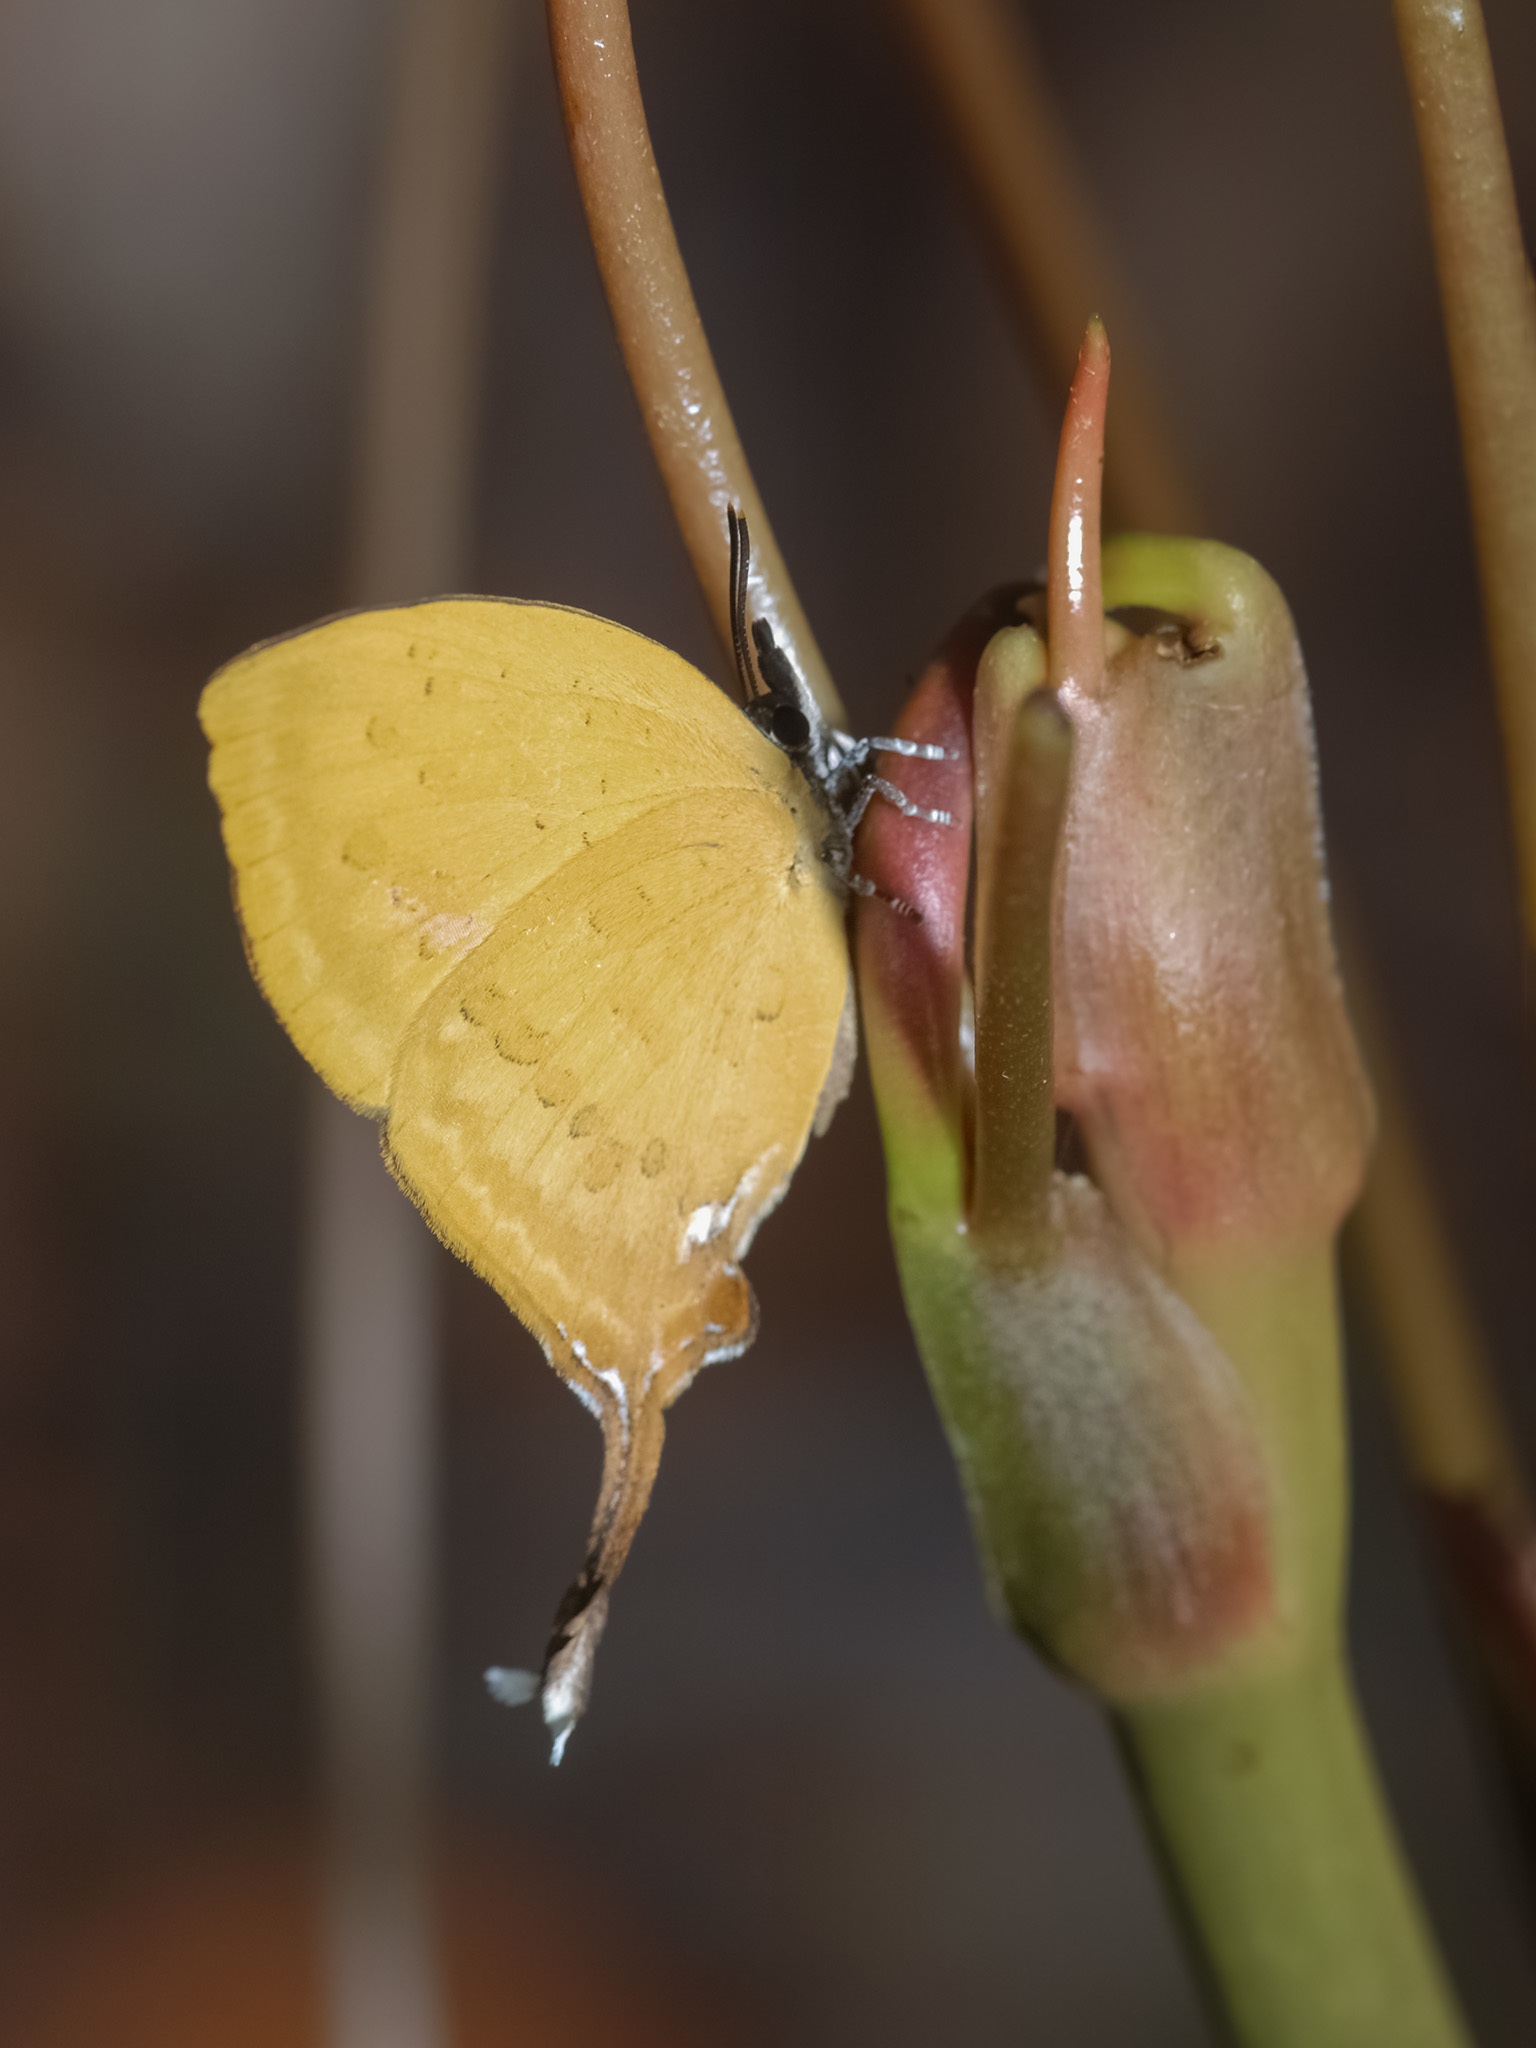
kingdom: Animalia
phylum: Arthropoda
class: Insecta
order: Lepidoptera
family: Lycaenidae
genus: Yasoda
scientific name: Yasoda pita
